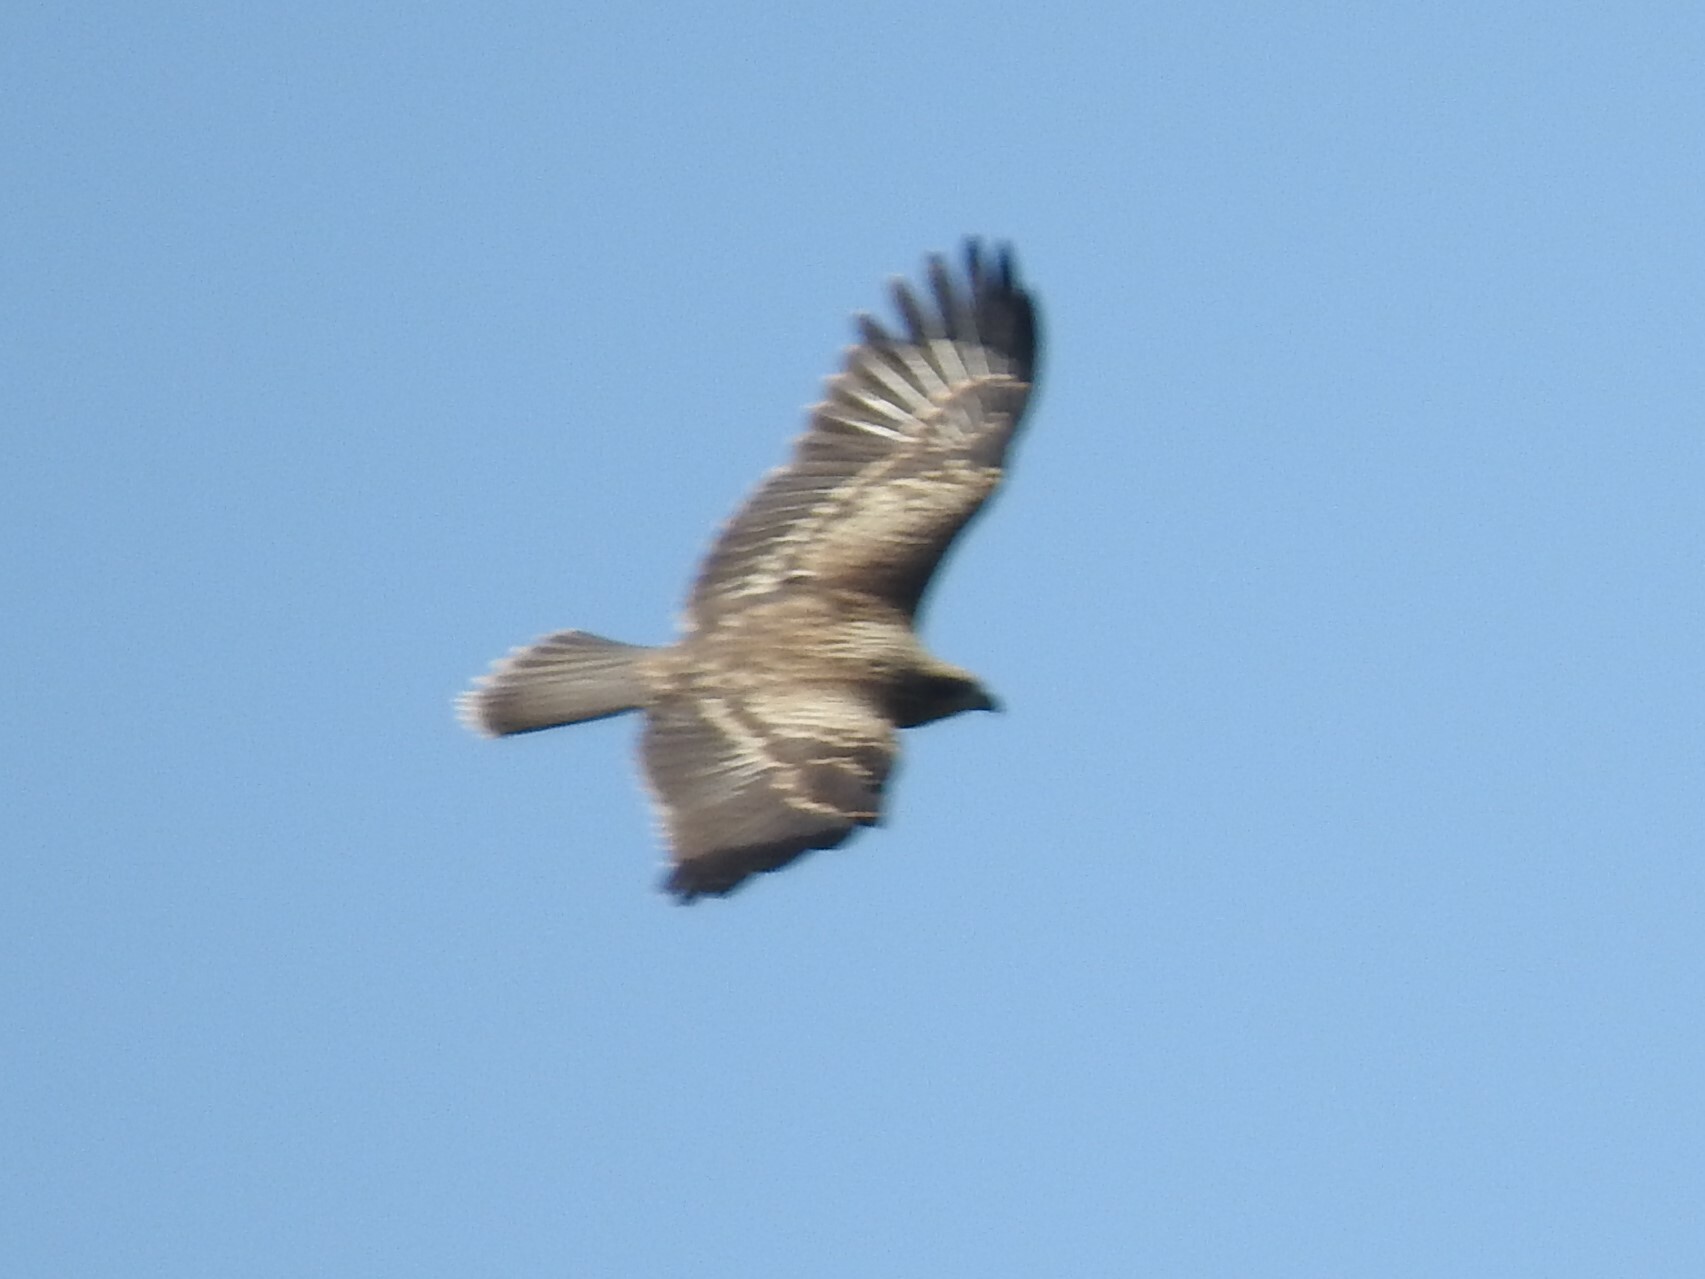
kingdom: Animalia
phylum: Chordata
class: Aves
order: Accipitriformes
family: Accipitridae
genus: Milvus
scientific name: Milvus migrans
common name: Black kite
